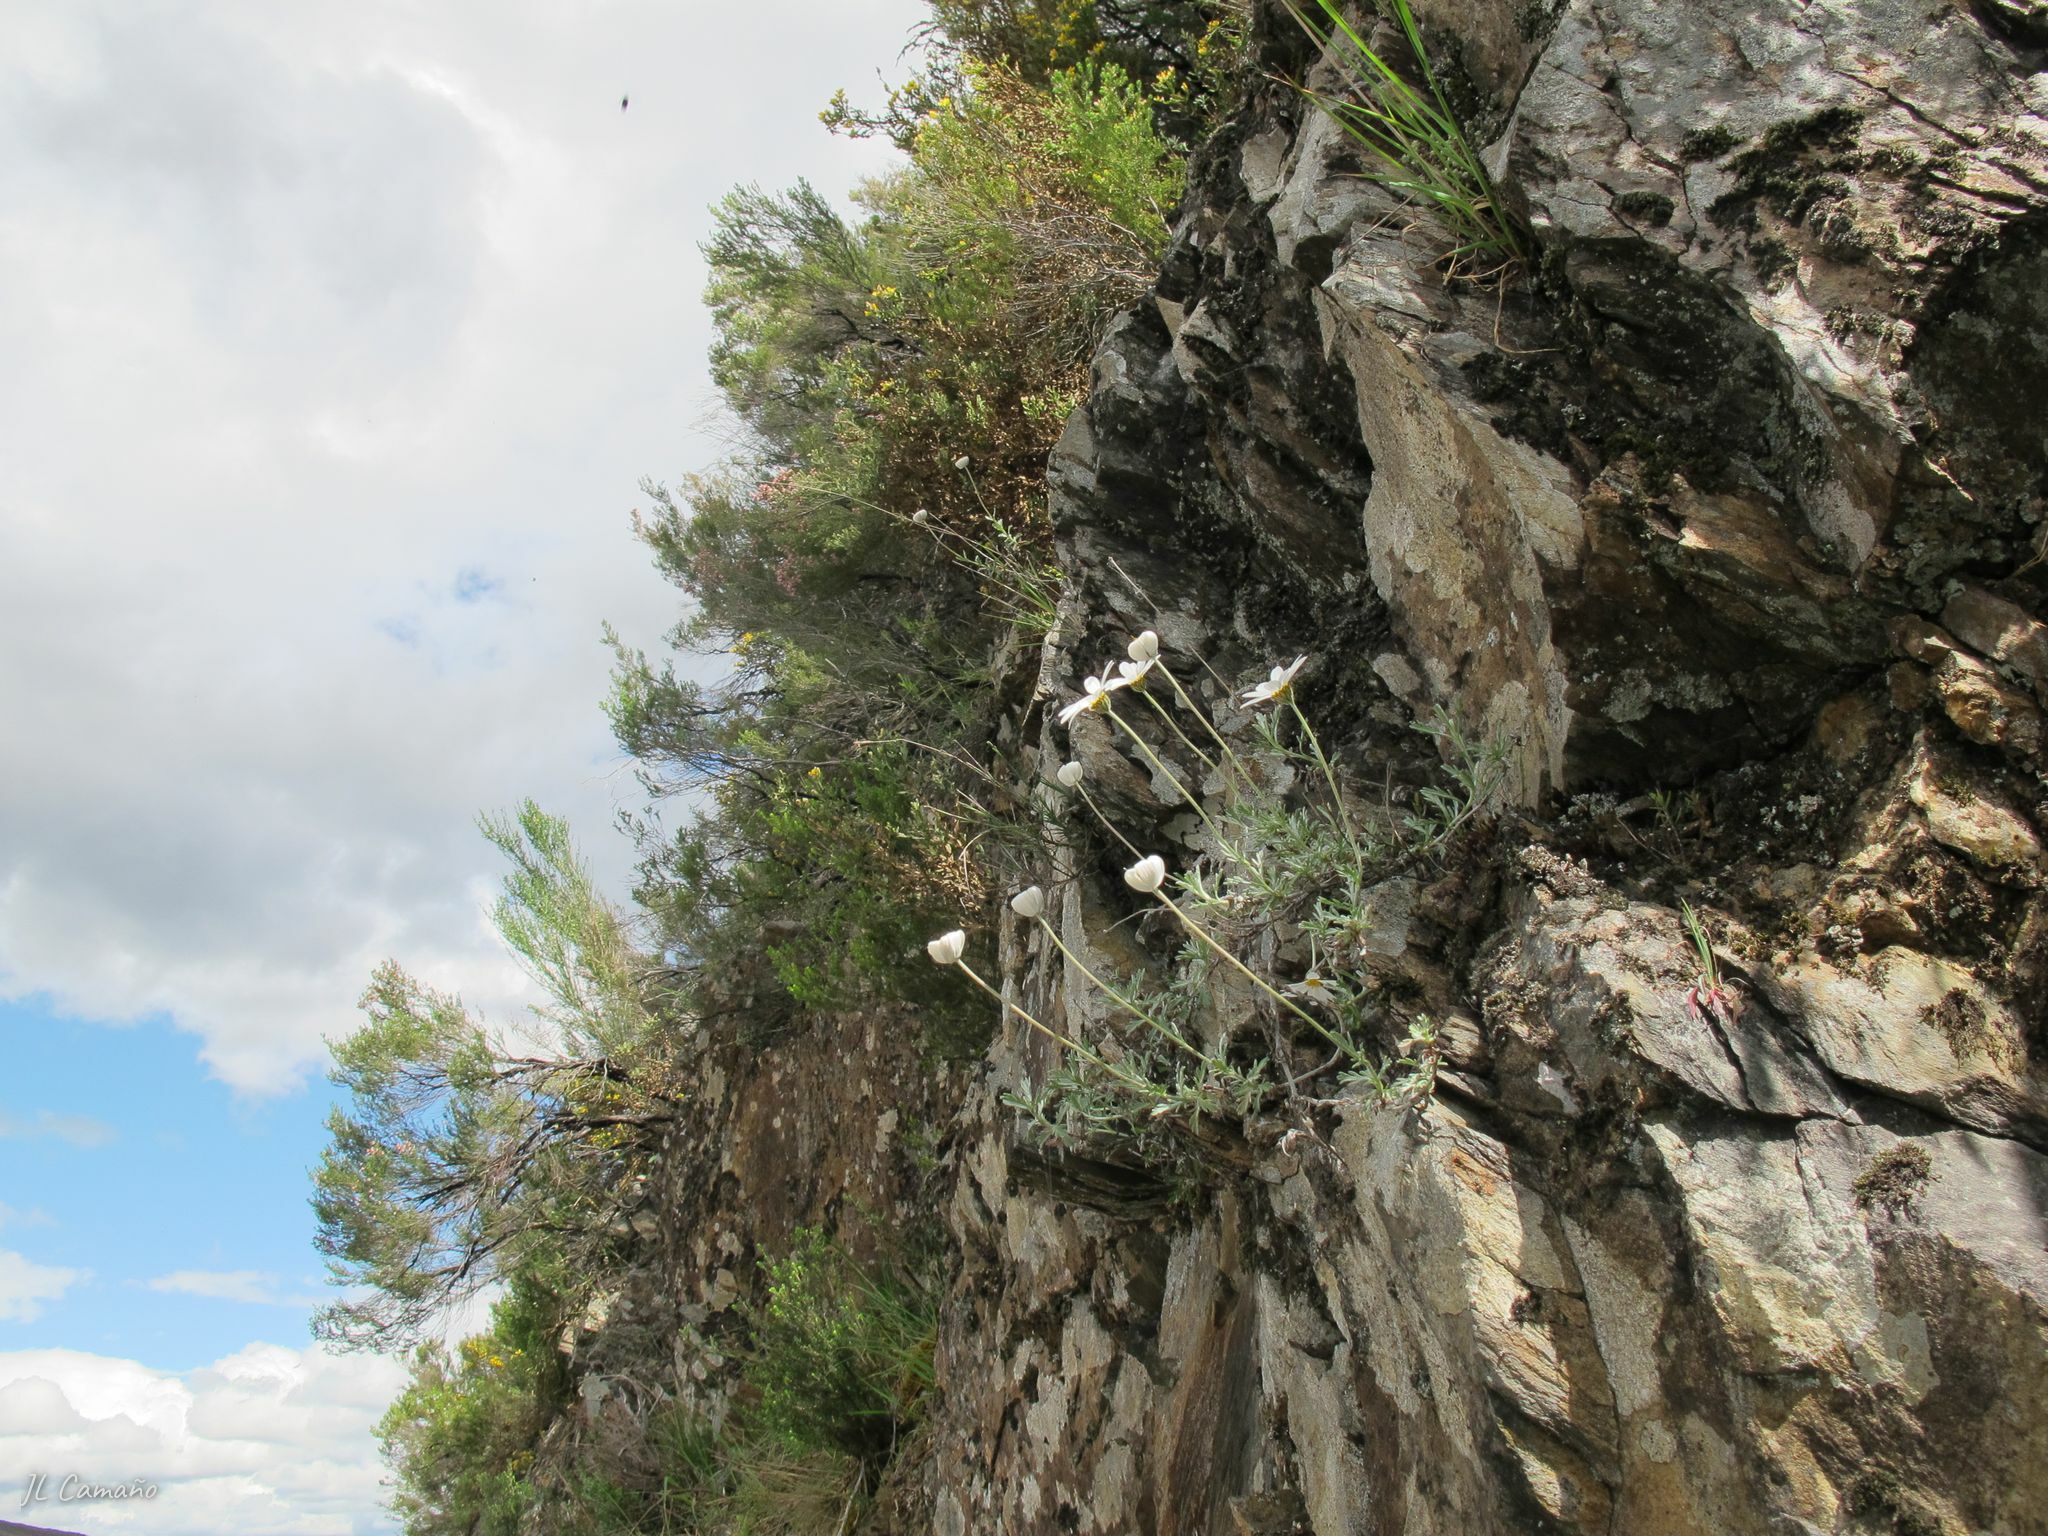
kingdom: Plantae
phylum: Tracheophyta
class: Magnoliopsida
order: Asterales
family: Asteraceae
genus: Phalacrocarpum
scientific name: Phalacrocarpum oppositifolium
